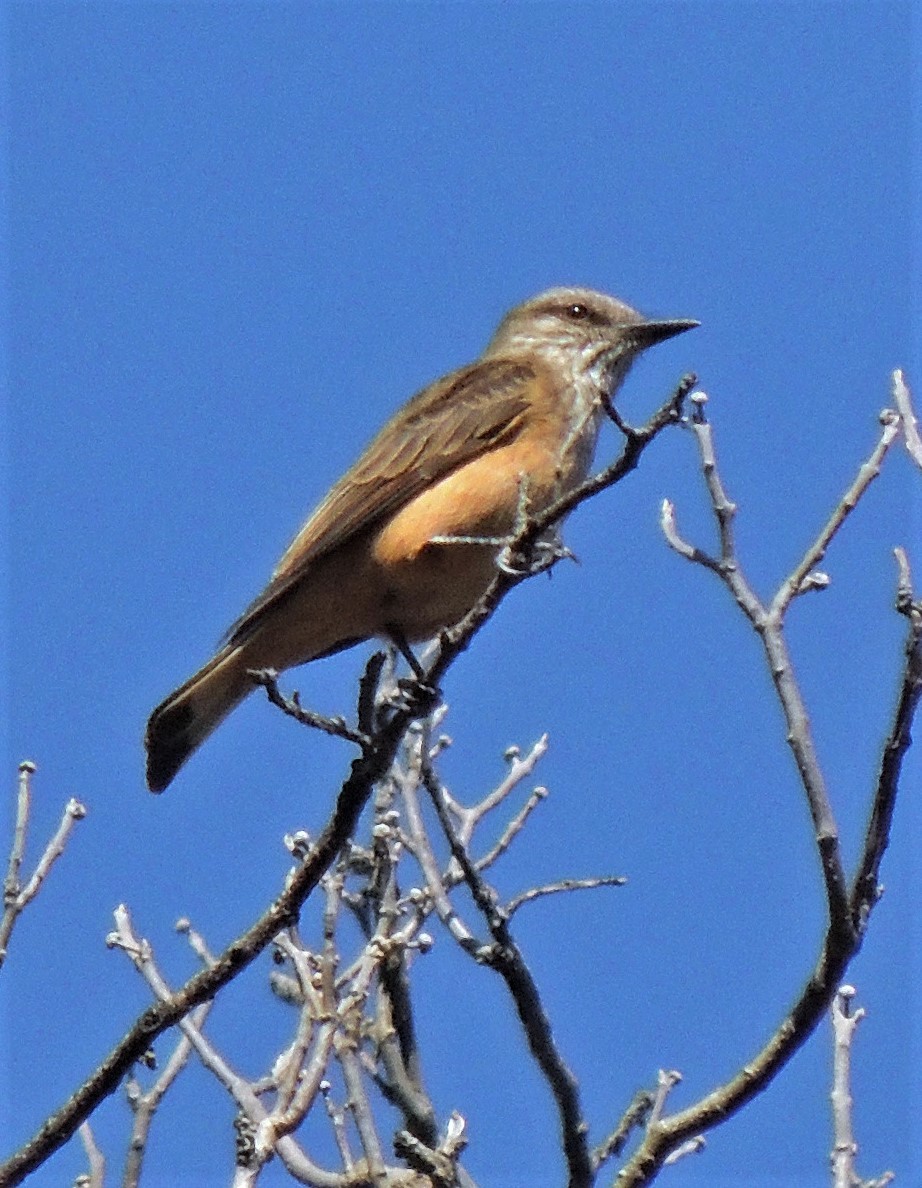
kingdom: Animalia
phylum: Chordata
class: Aves
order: Passeriformes
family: Tyrannidae
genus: Myiotheretes
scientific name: Myiotheretes striaticollis
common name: Streak-throated bush tyrant
